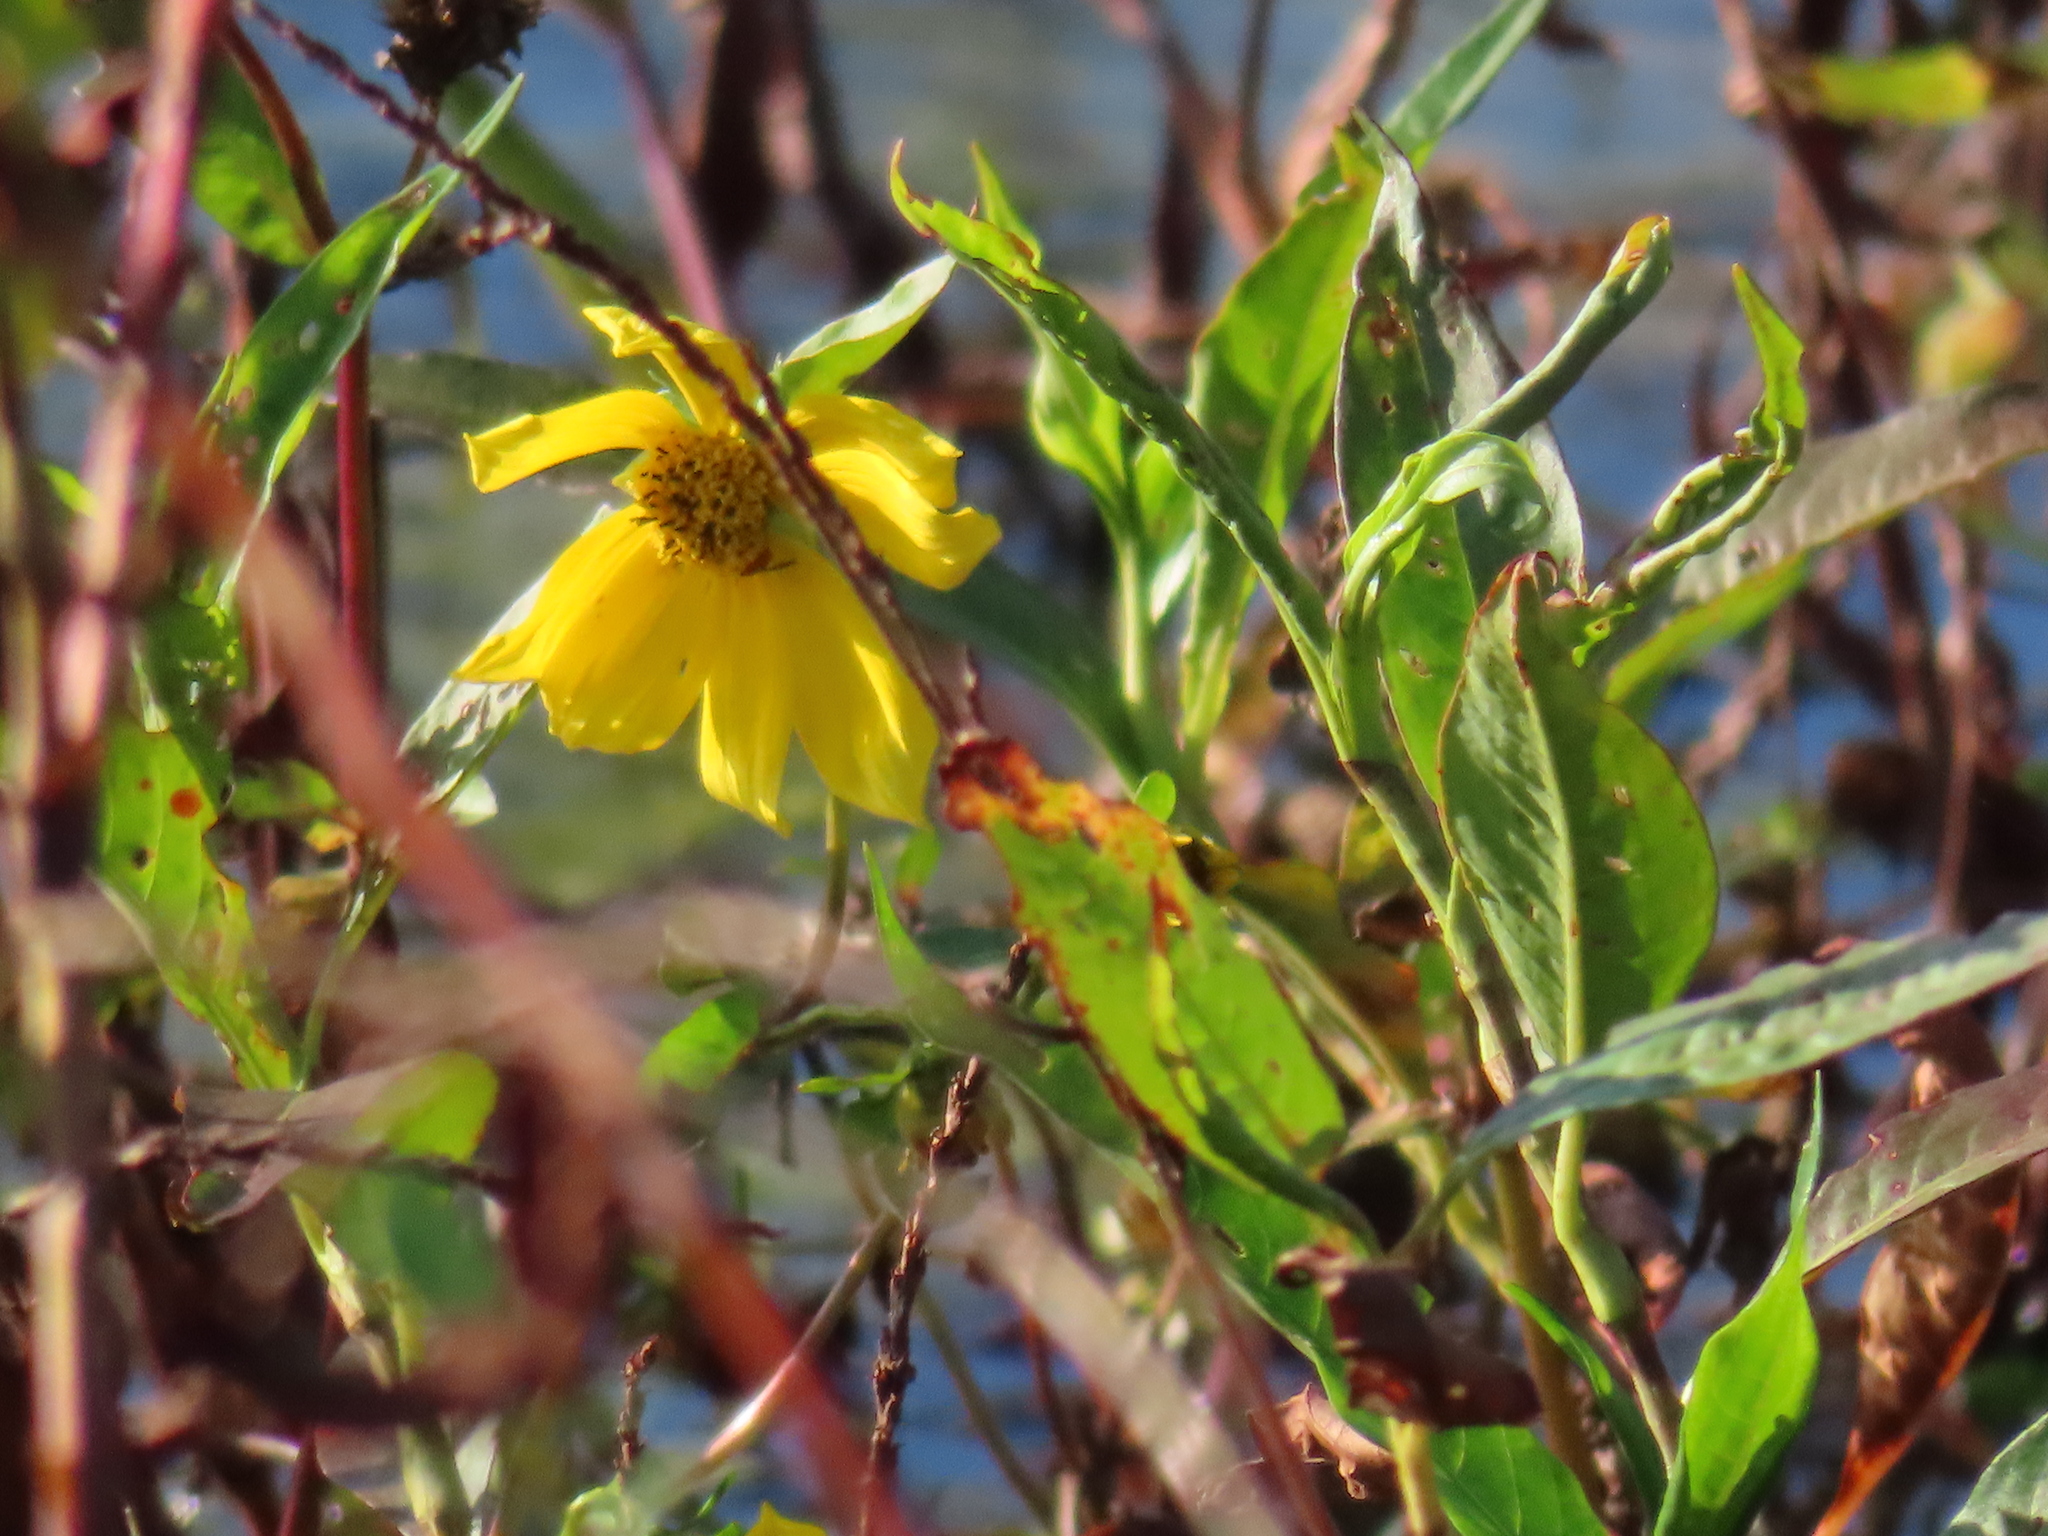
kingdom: Plantae
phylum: Tracheophyta
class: Magnoliopsida
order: Asterales
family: Asteraceae
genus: Bidens
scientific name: Bidens laevis
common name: Larger bur-marigold
